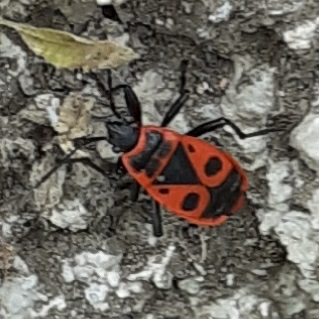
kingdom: Animalia
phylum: Arthropoda
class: Insecta
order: Hemiptera
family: Pyrrhocoridae
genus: Pyrrhocoris
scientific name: Pyrrhocoris apterus
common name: Firebug
